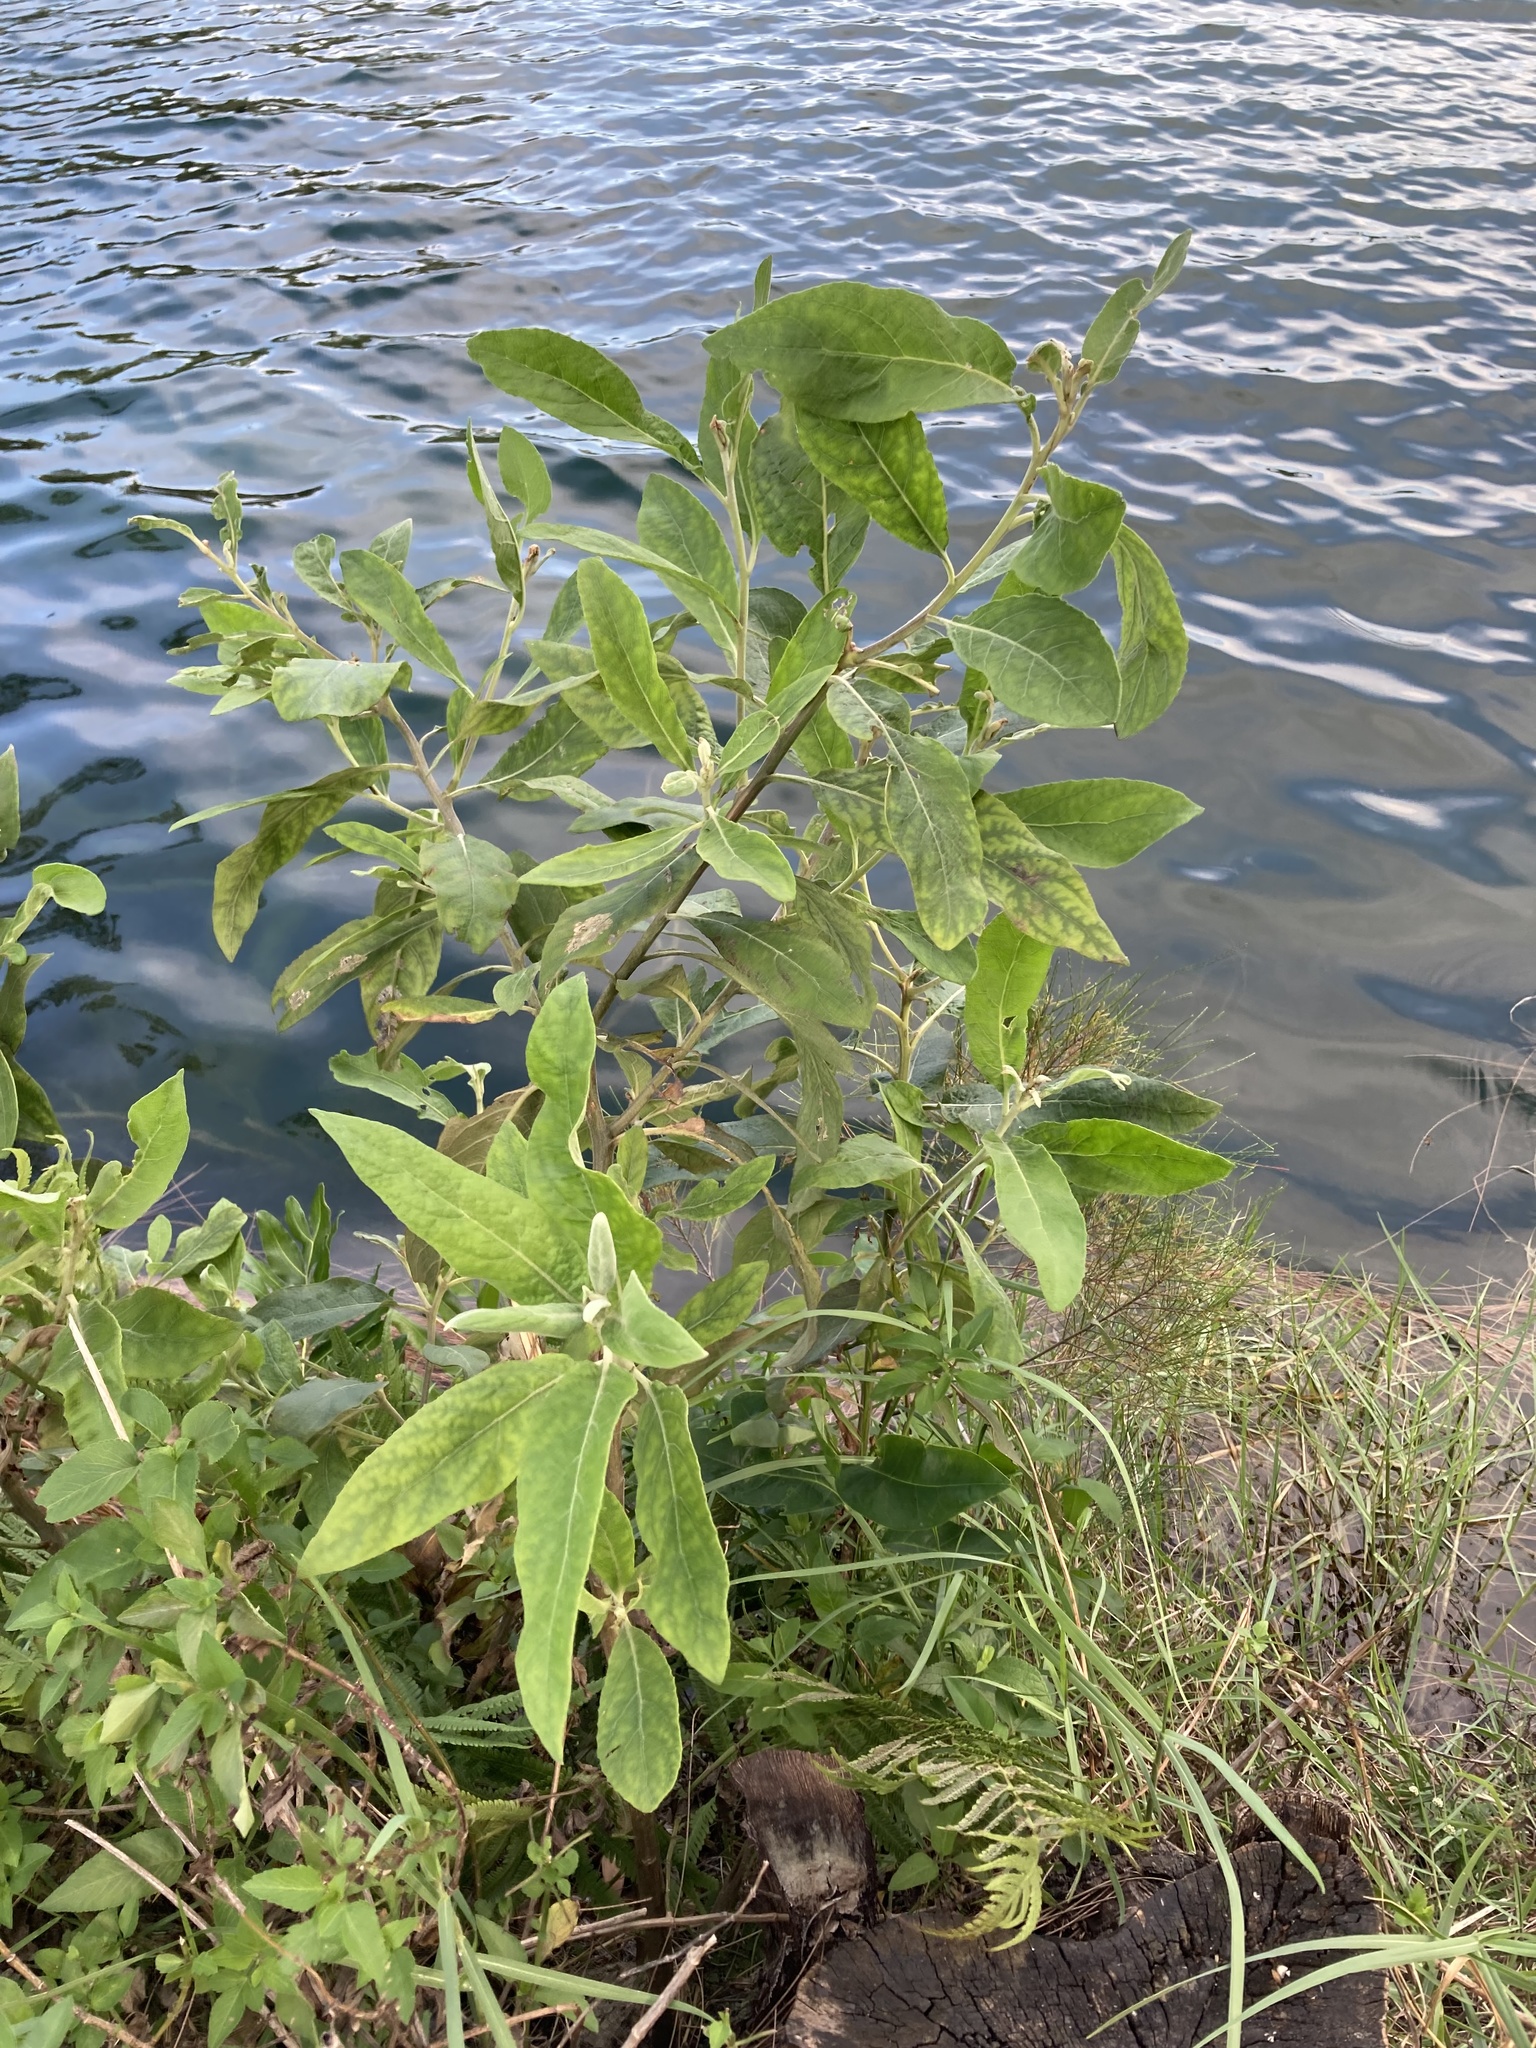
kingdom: Plantae
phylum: Tracheophyta
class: Magnoliopsida
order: Asterales
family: Asteraceae
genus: Pluchea
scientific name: Pluchea carolinensis
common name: Marsh fleabane
